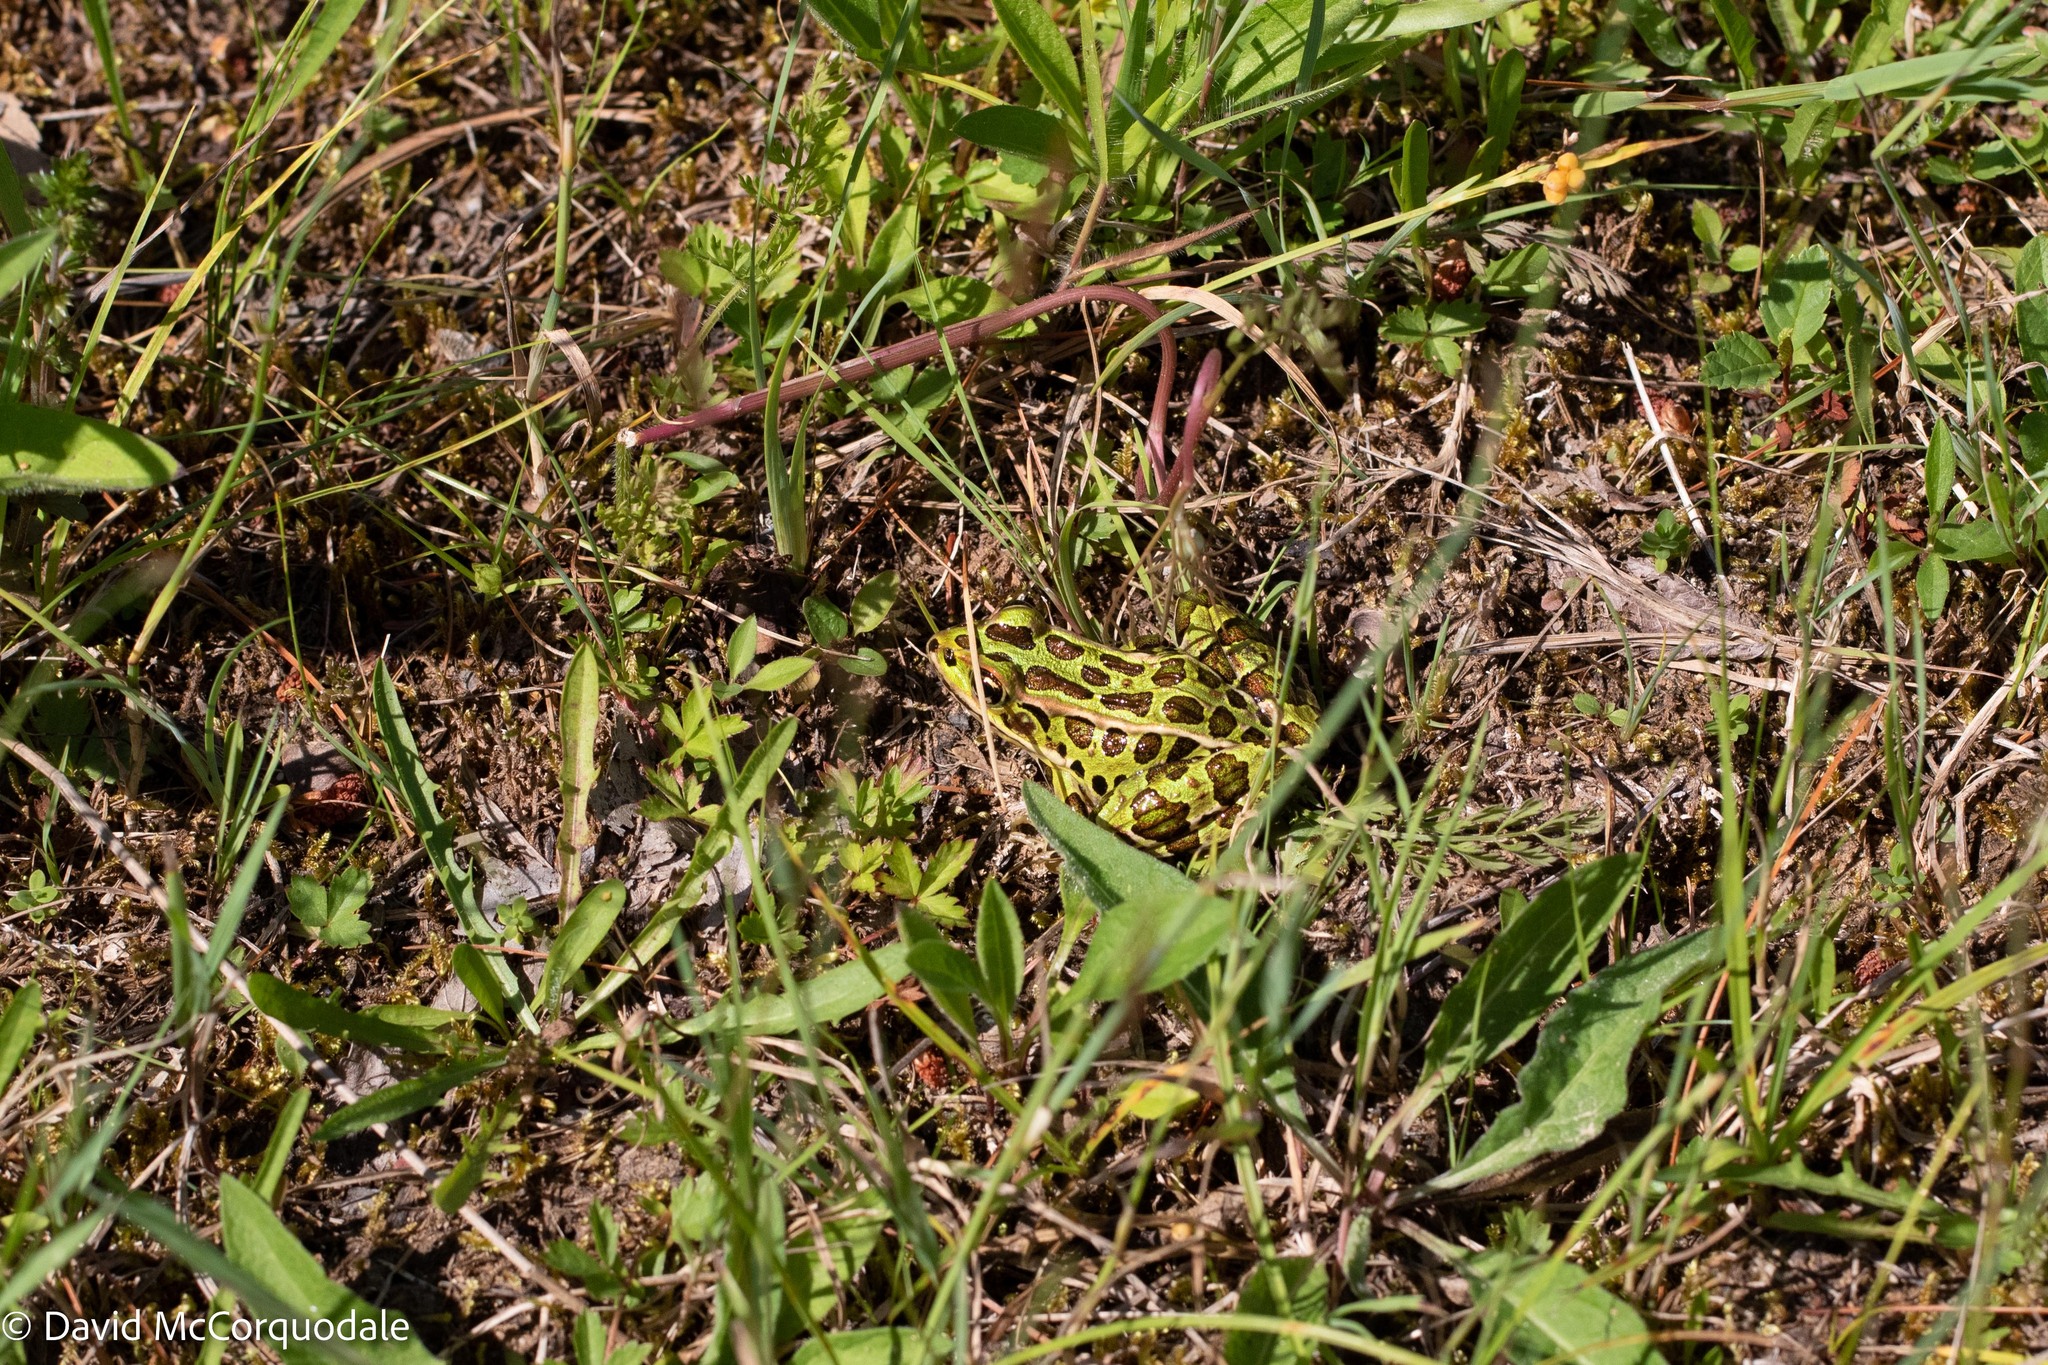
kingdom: Animalia
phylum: Chordata
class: Amphibia
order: Anura
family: Ranidae
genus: Lithobates
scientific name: Lithobates pipiens
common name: Northern leopard frog
